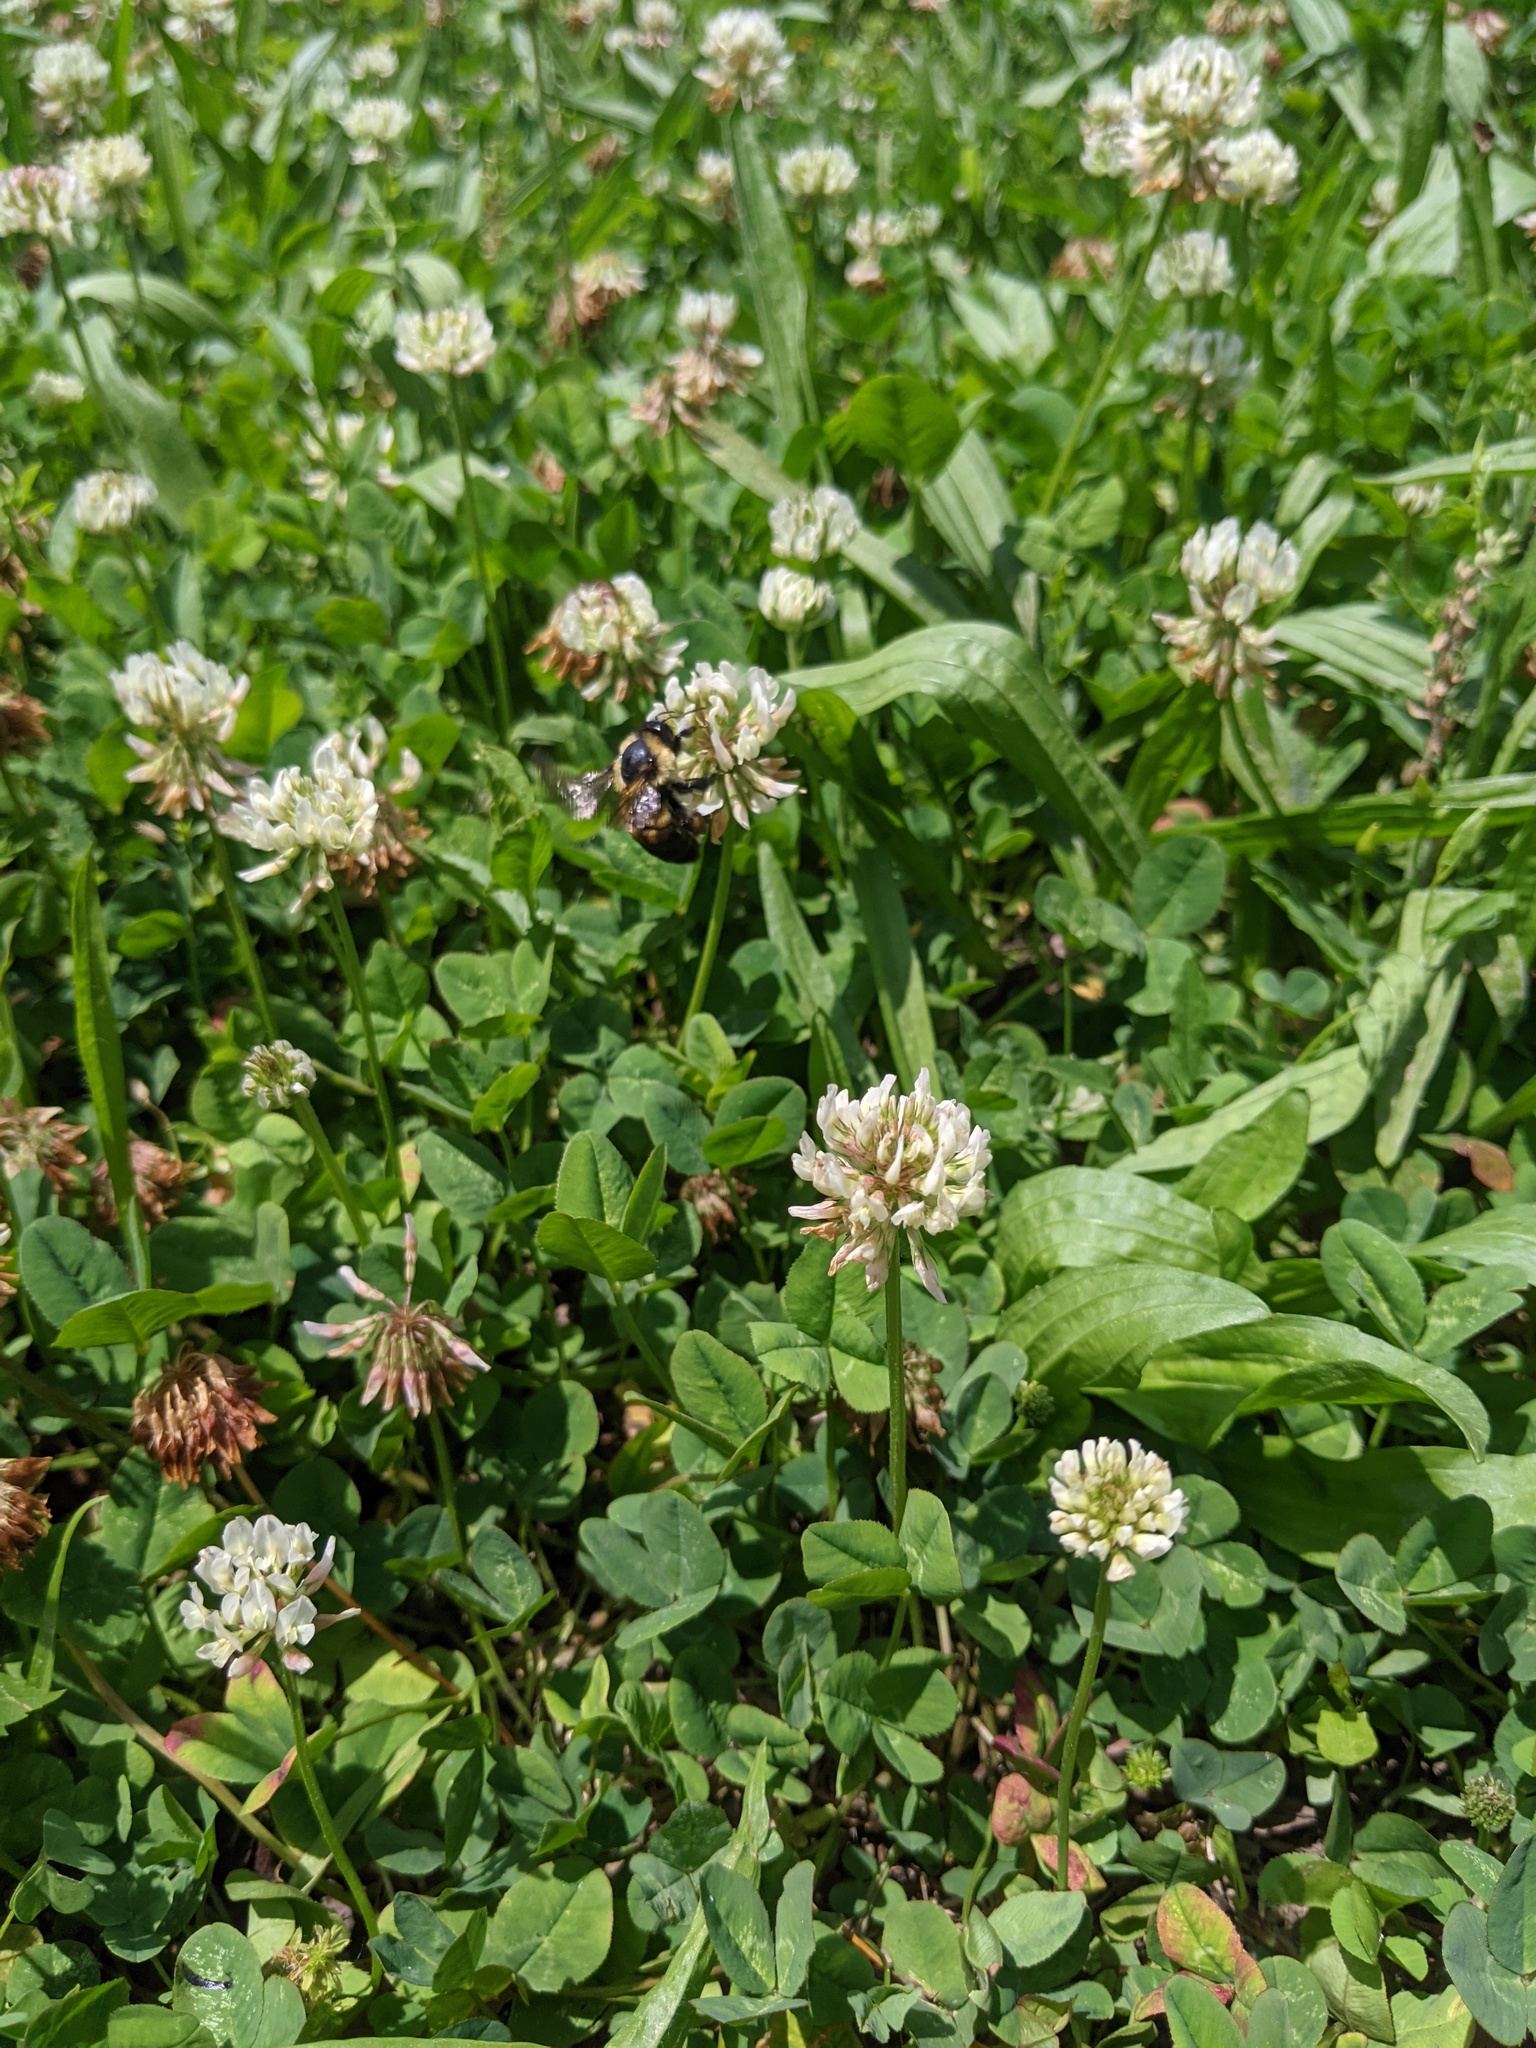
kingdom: Animalia
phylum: Arthropoda
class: Insecta
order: Hymenoptera
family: Apidae
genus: Bombus
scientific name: Bombus griseocollis
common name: Brown-belted bumble bee
